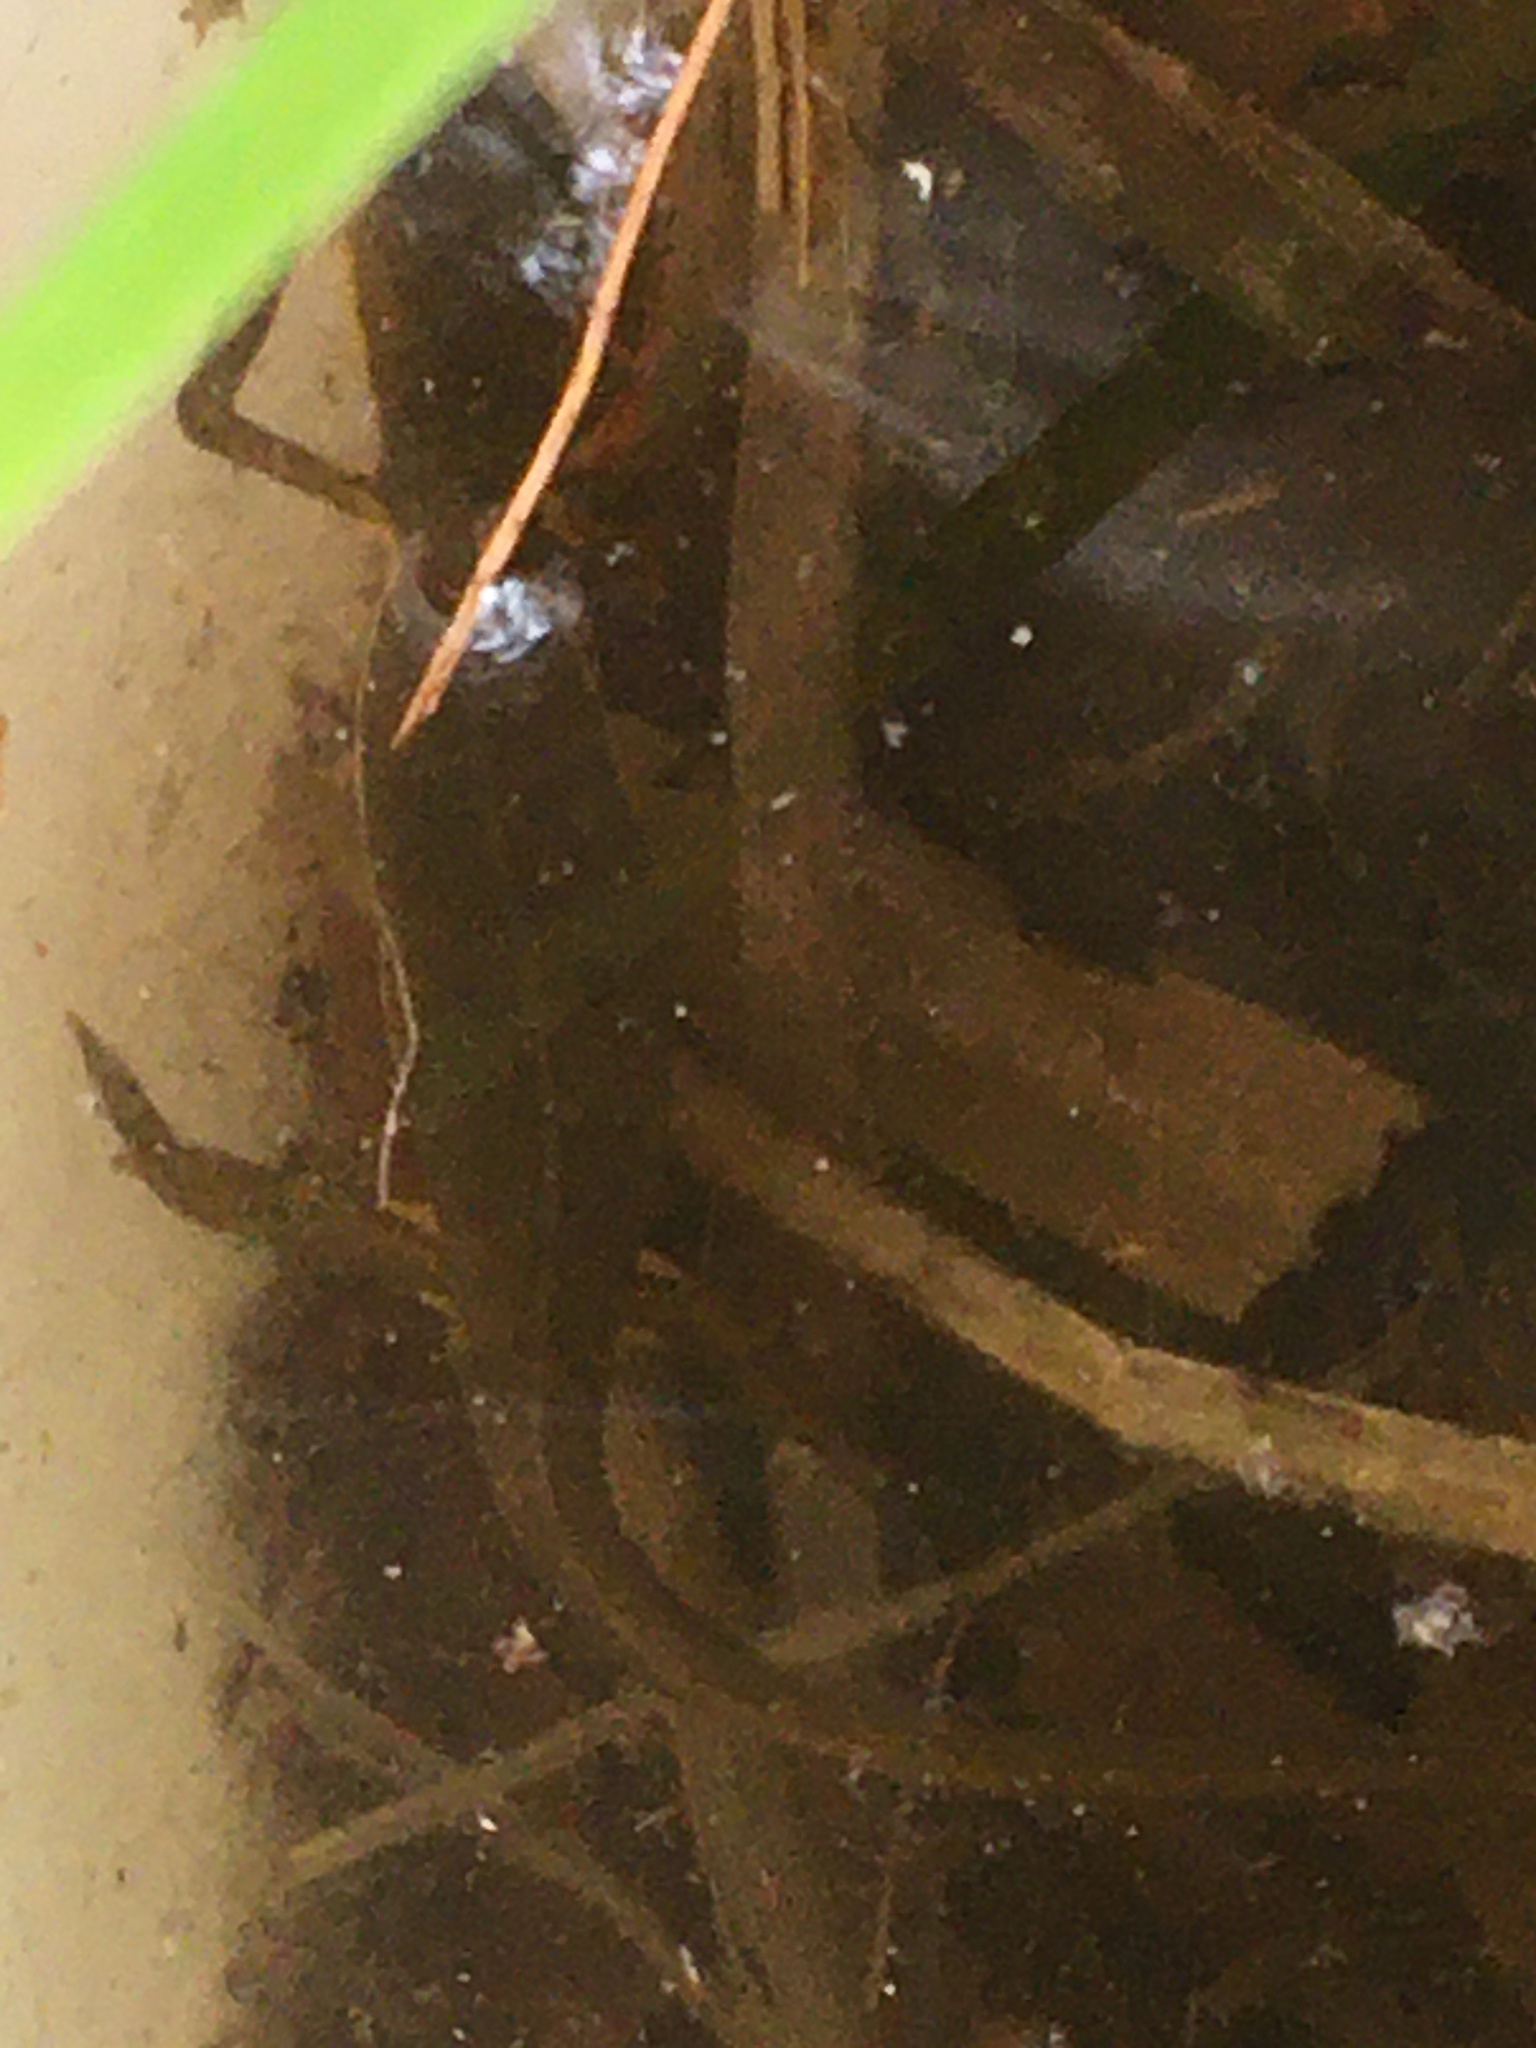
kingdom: Animalia
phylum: Chordata
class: Amphibia
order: Caudata
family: Salamandridae
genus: Notophthalmus
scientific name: Notophthalmus viridescens
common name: Eastern newt
